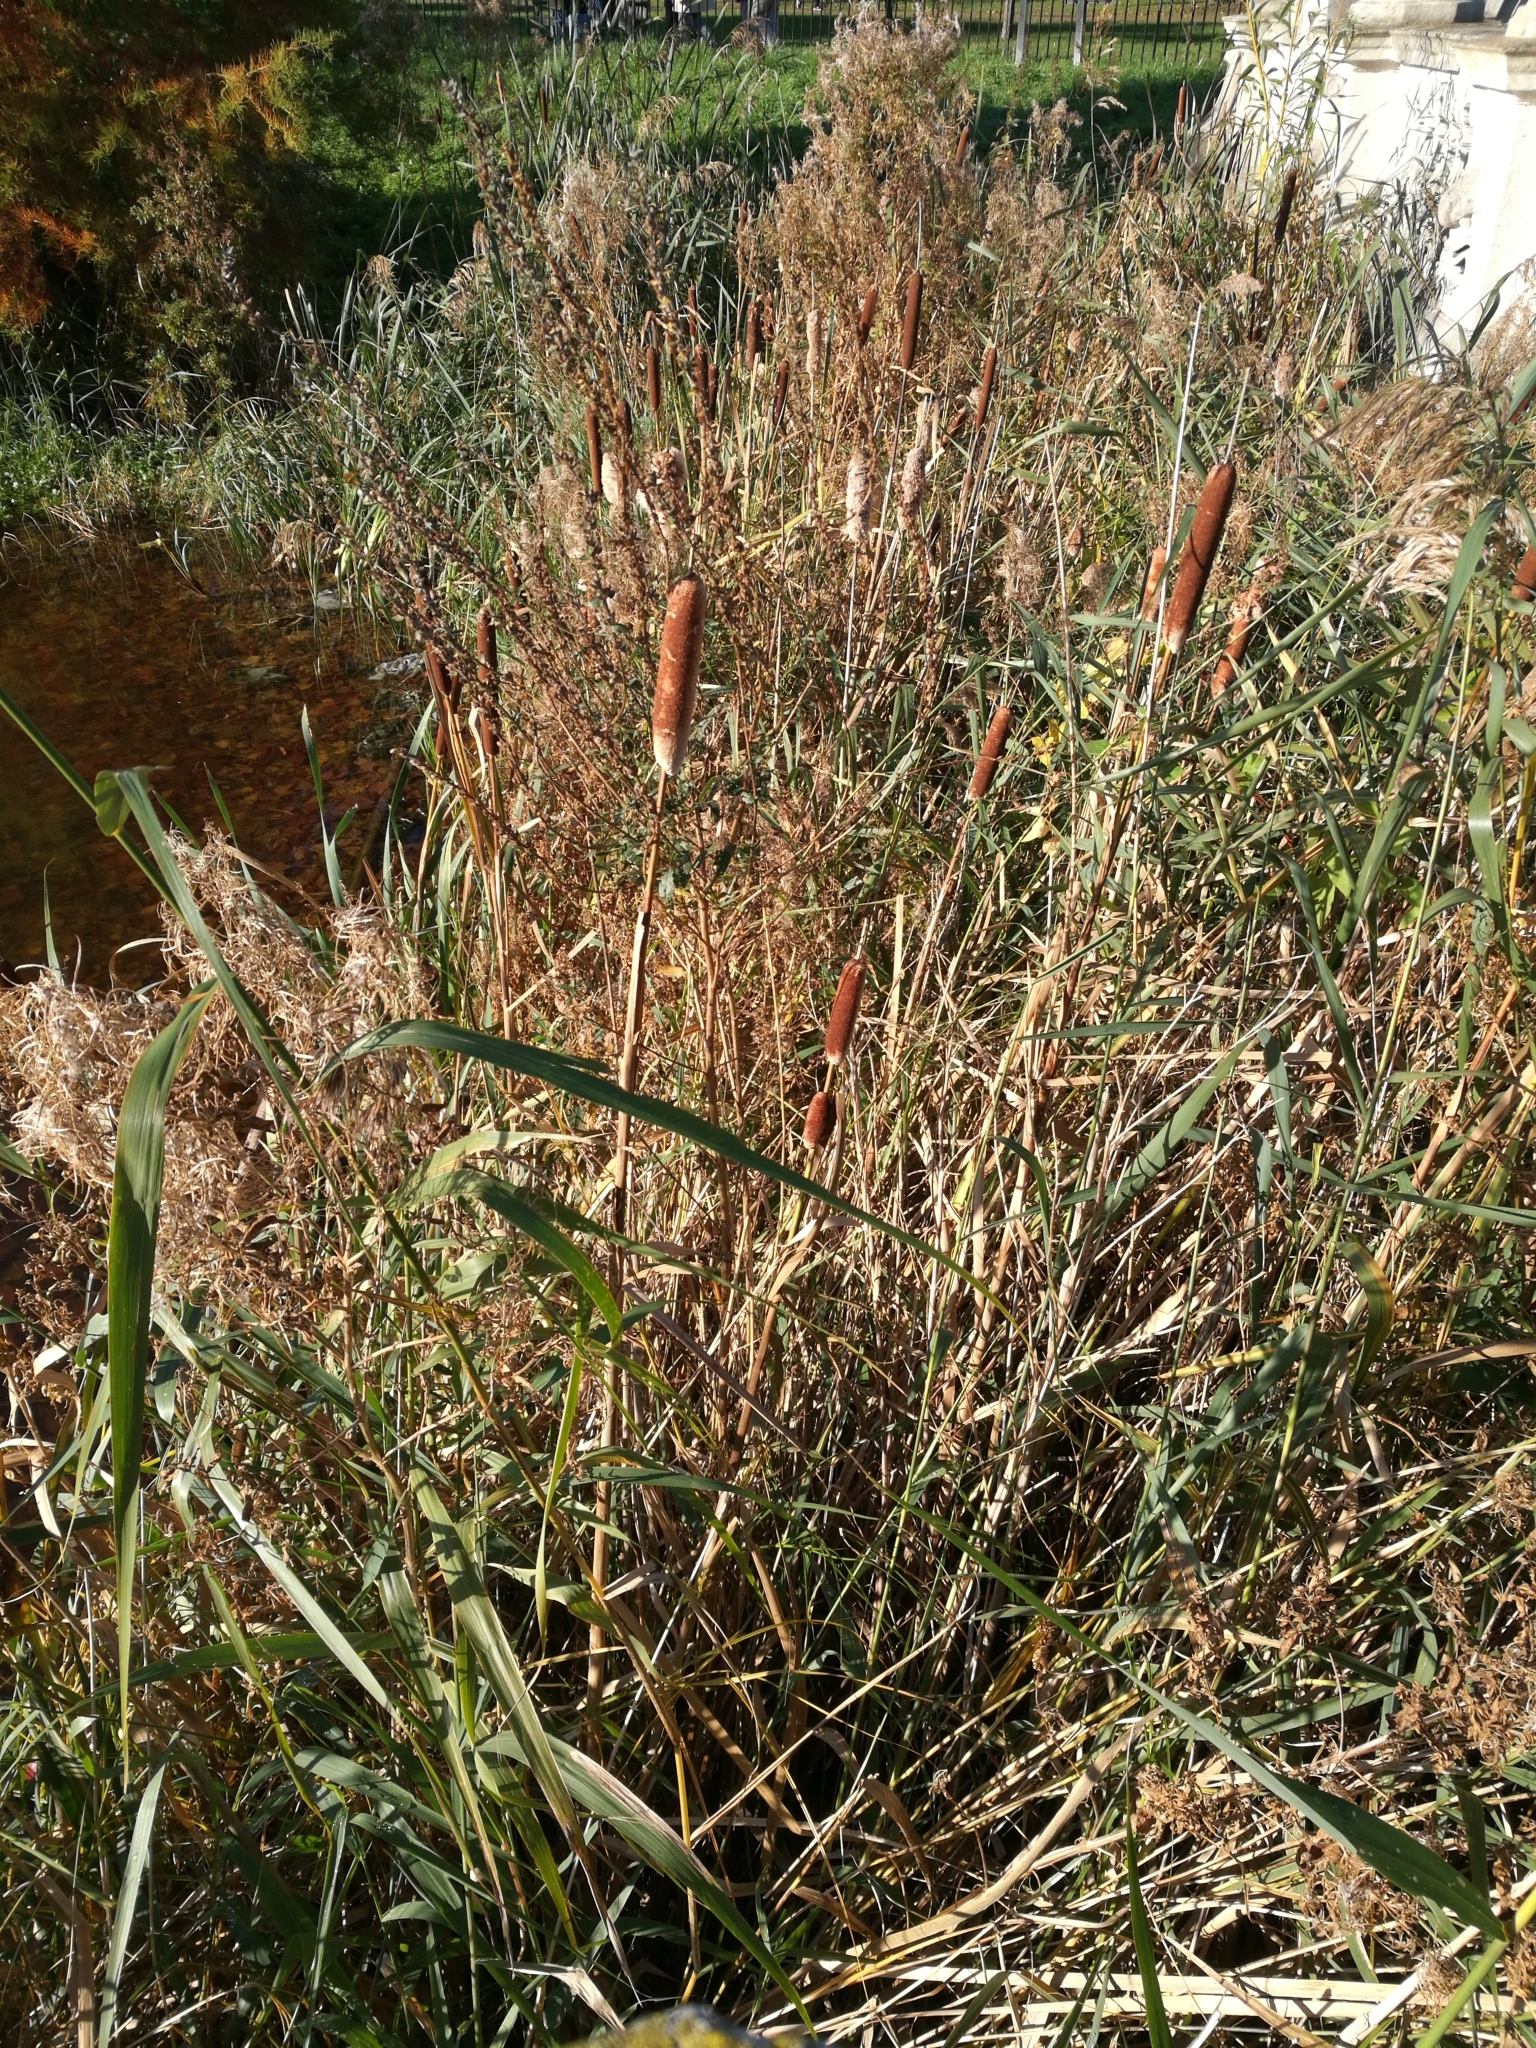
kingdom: Plantae
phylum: Tracheophyta
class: Liliopsida
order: Poales
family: Typhaceae
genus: Typha
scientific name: Typha latifolia
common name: Broadleaf cattail
